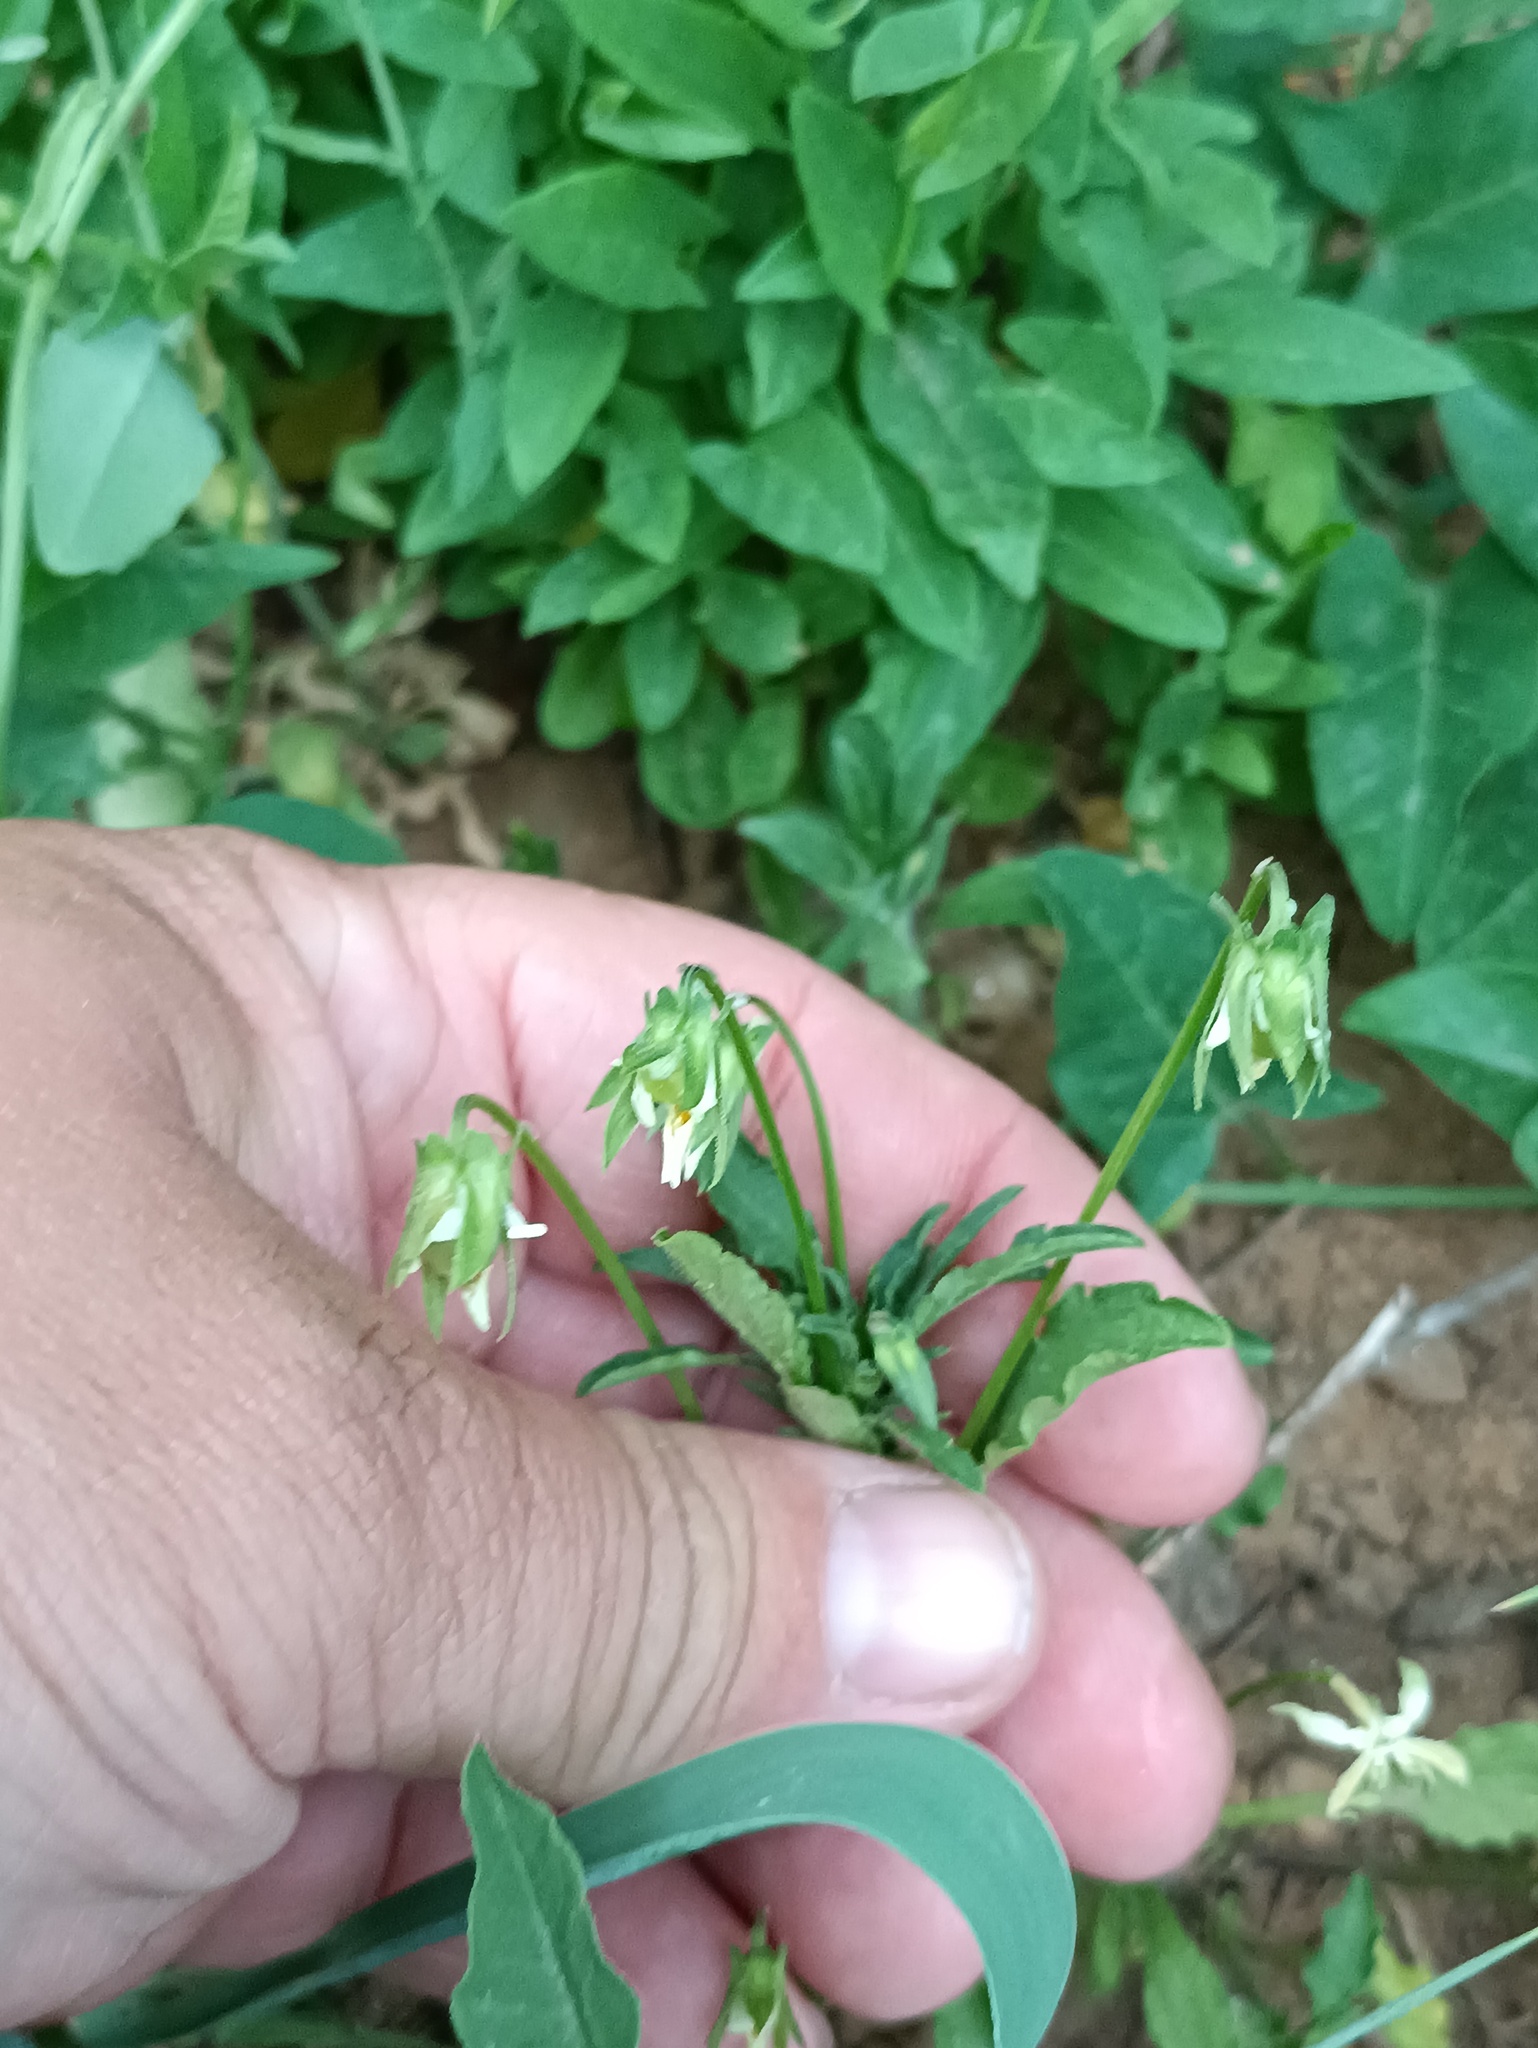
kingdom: Plantae
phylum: Tracheophyta
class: Magnoliopsida
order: Malpighiales
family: Violaceae
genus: Viola
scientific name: Viola arvensis
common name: Field pansy
